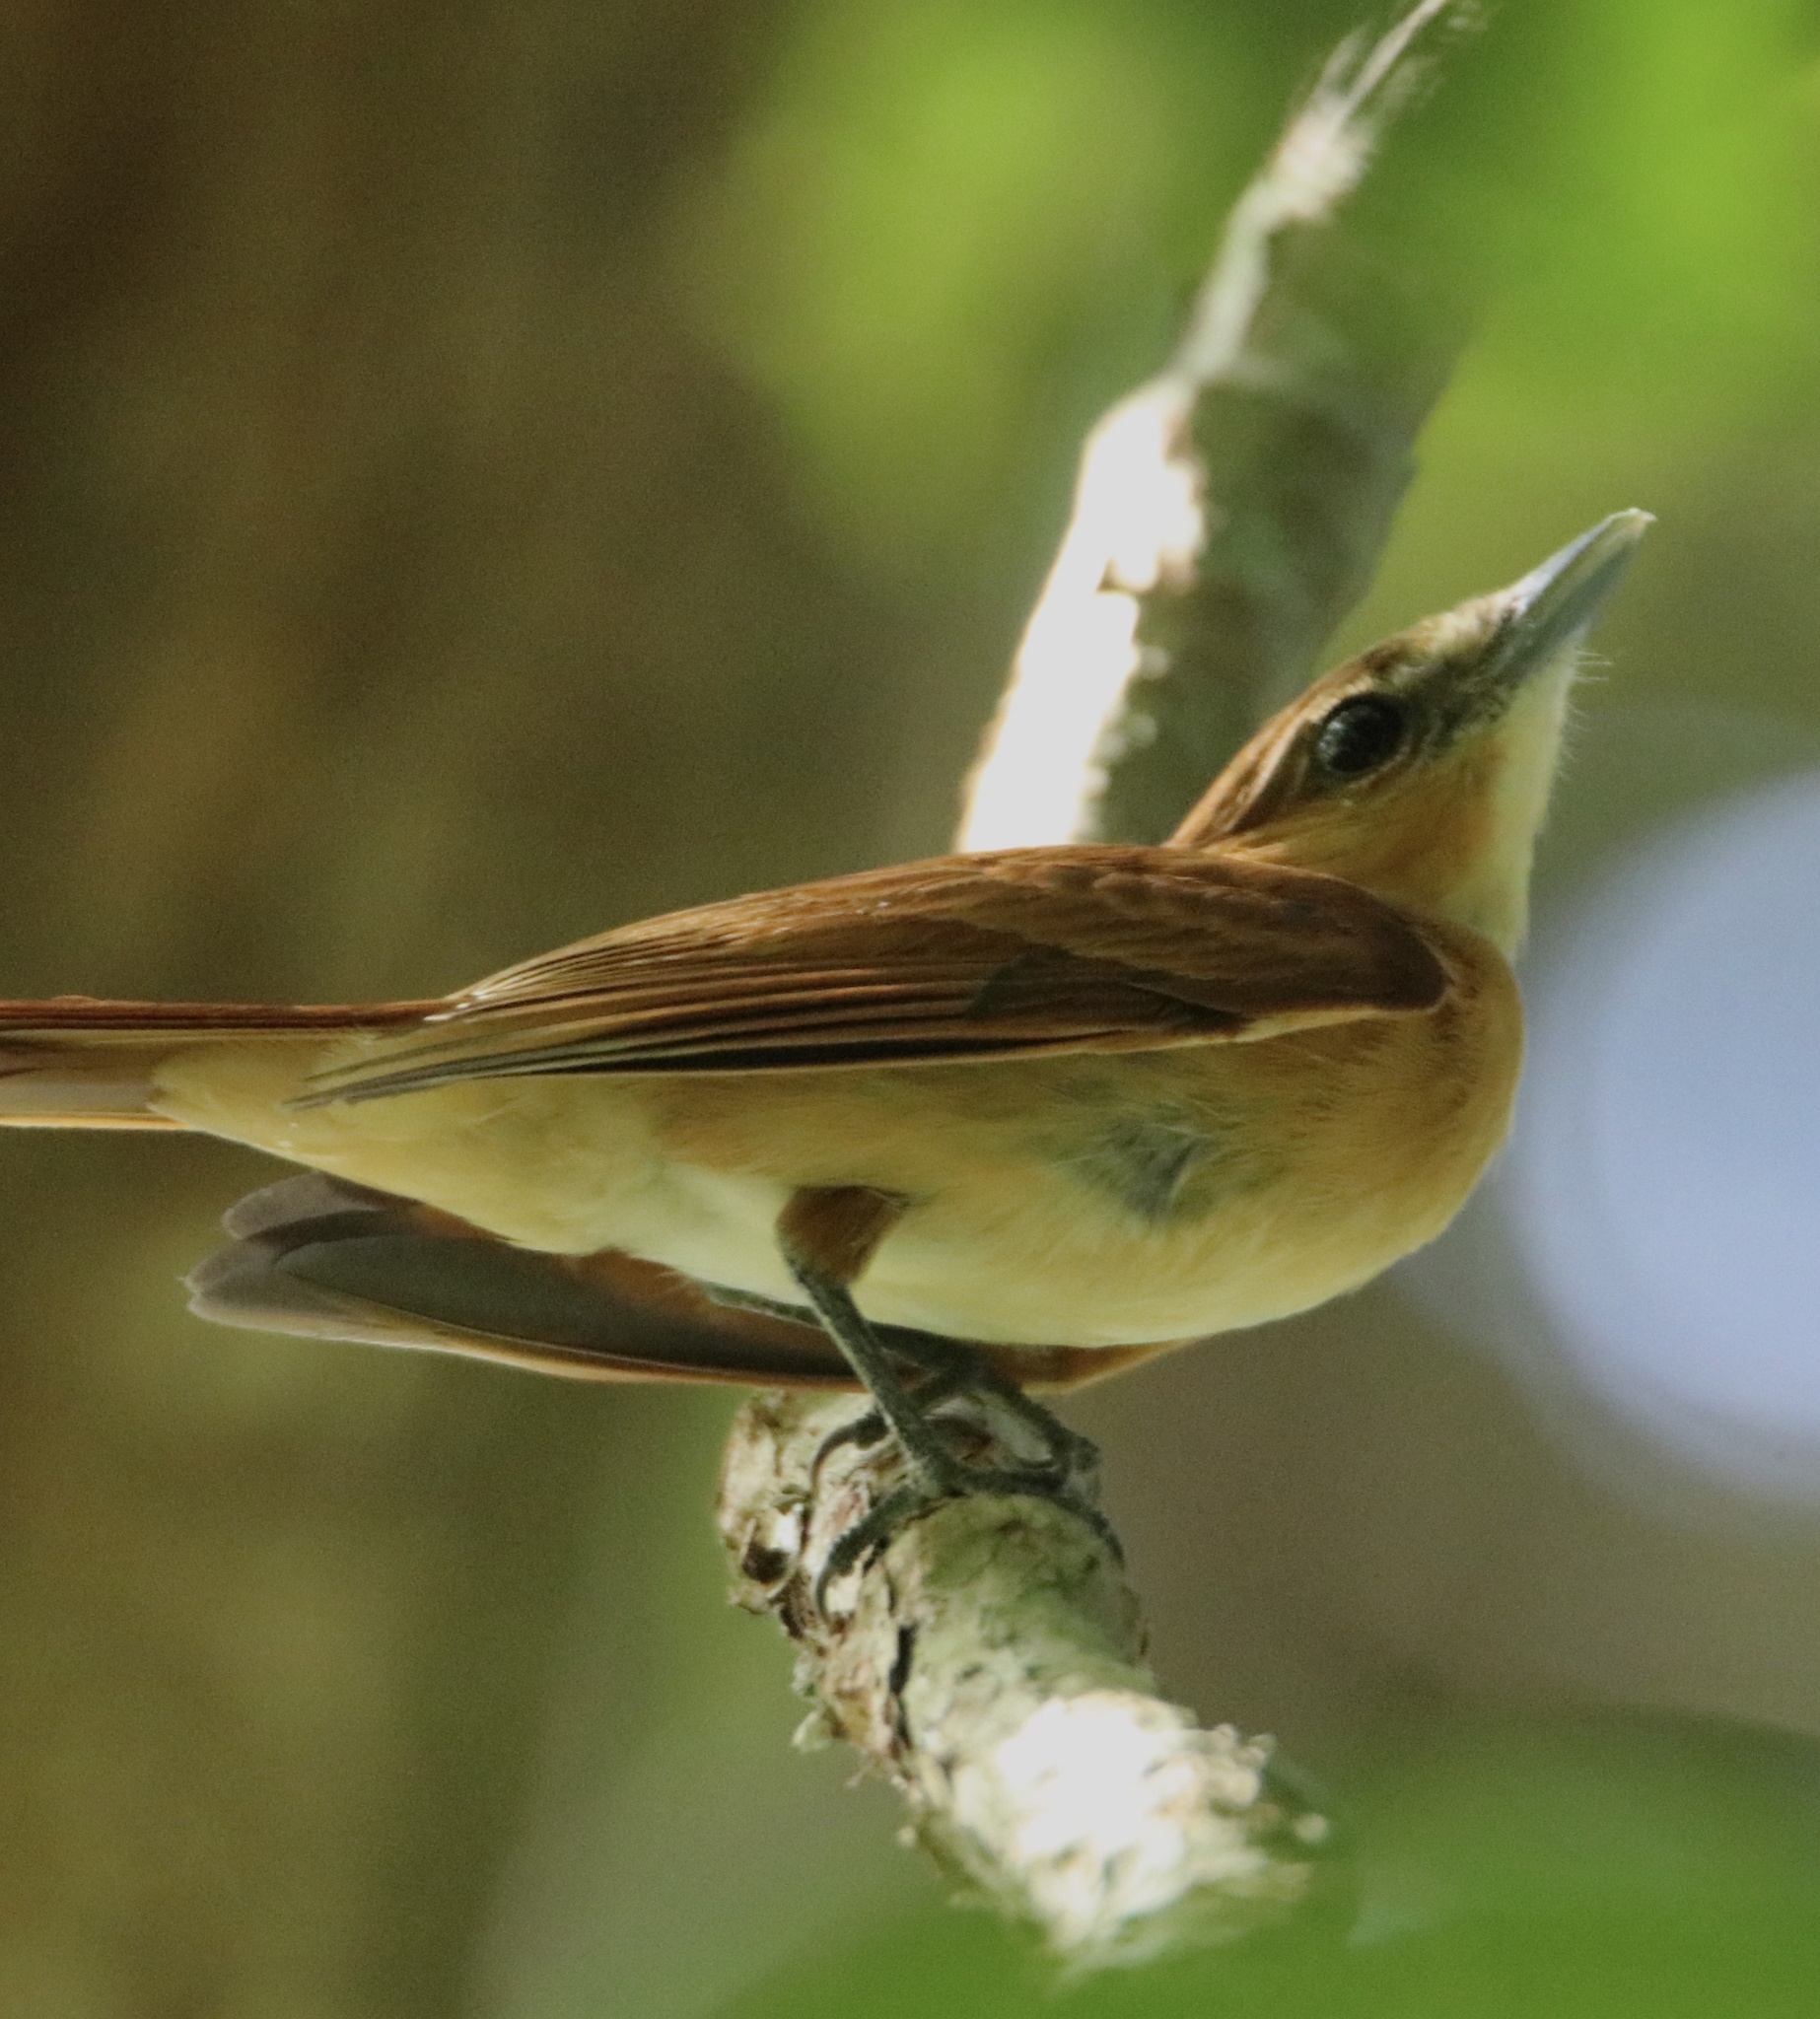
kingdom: Animalia
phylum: Chordata
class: Aves
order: Passeriformes
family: Cotingidae
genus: Pachyramphus
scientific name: Pachyramphus cinnamomeus
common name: Cinnamon becard
